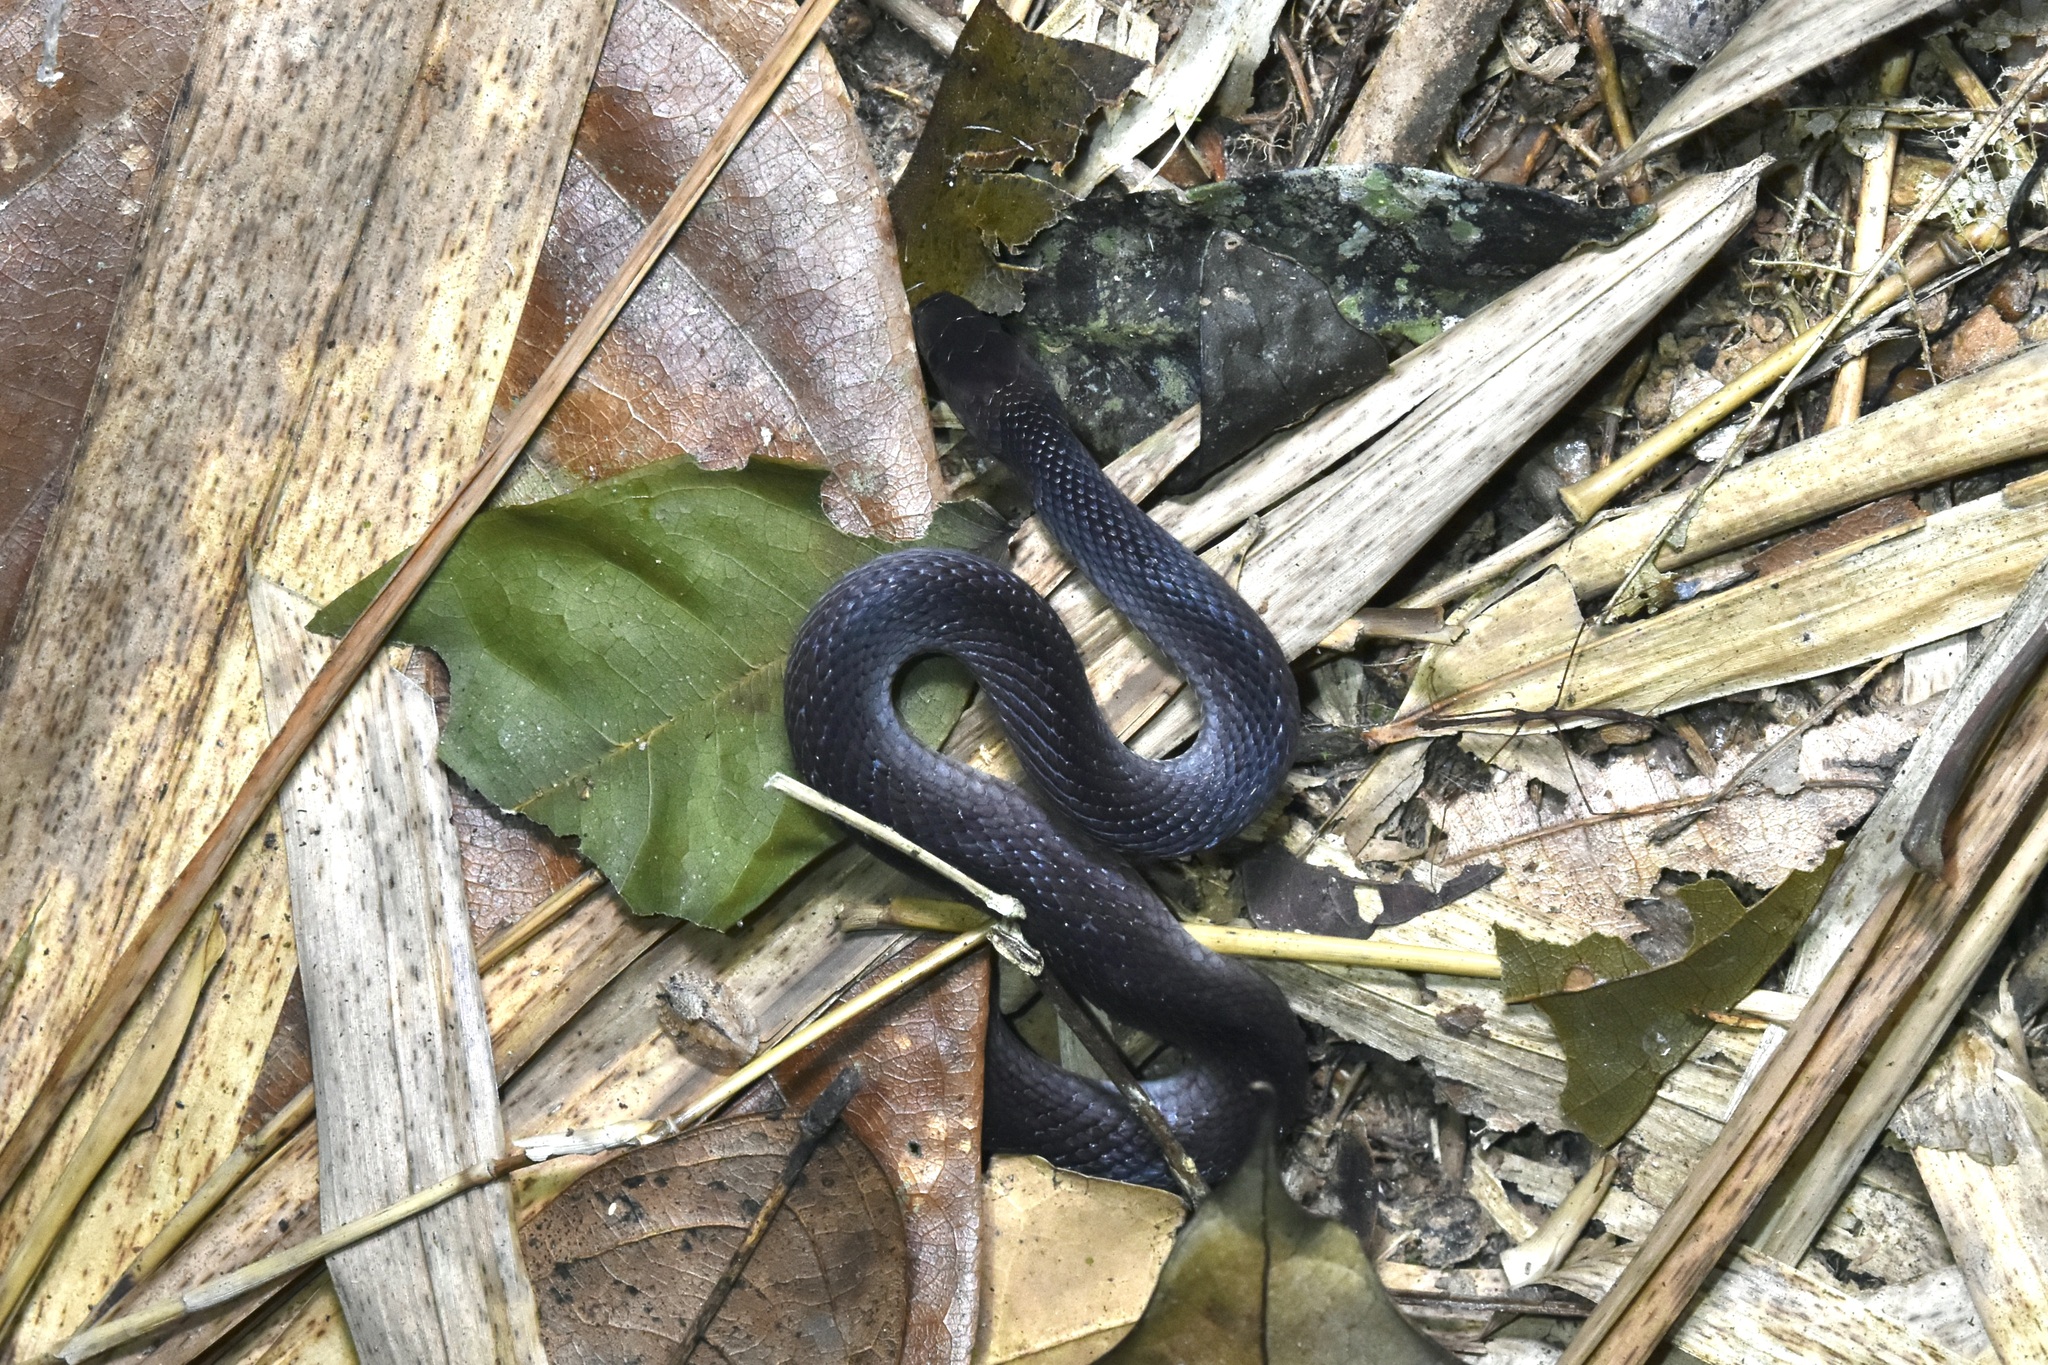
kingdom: Animalia
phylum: Chordata
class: Squamata
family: Colubridae
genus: Ninia
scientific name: Ninia atrata
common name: Hallowell's coffee snake
